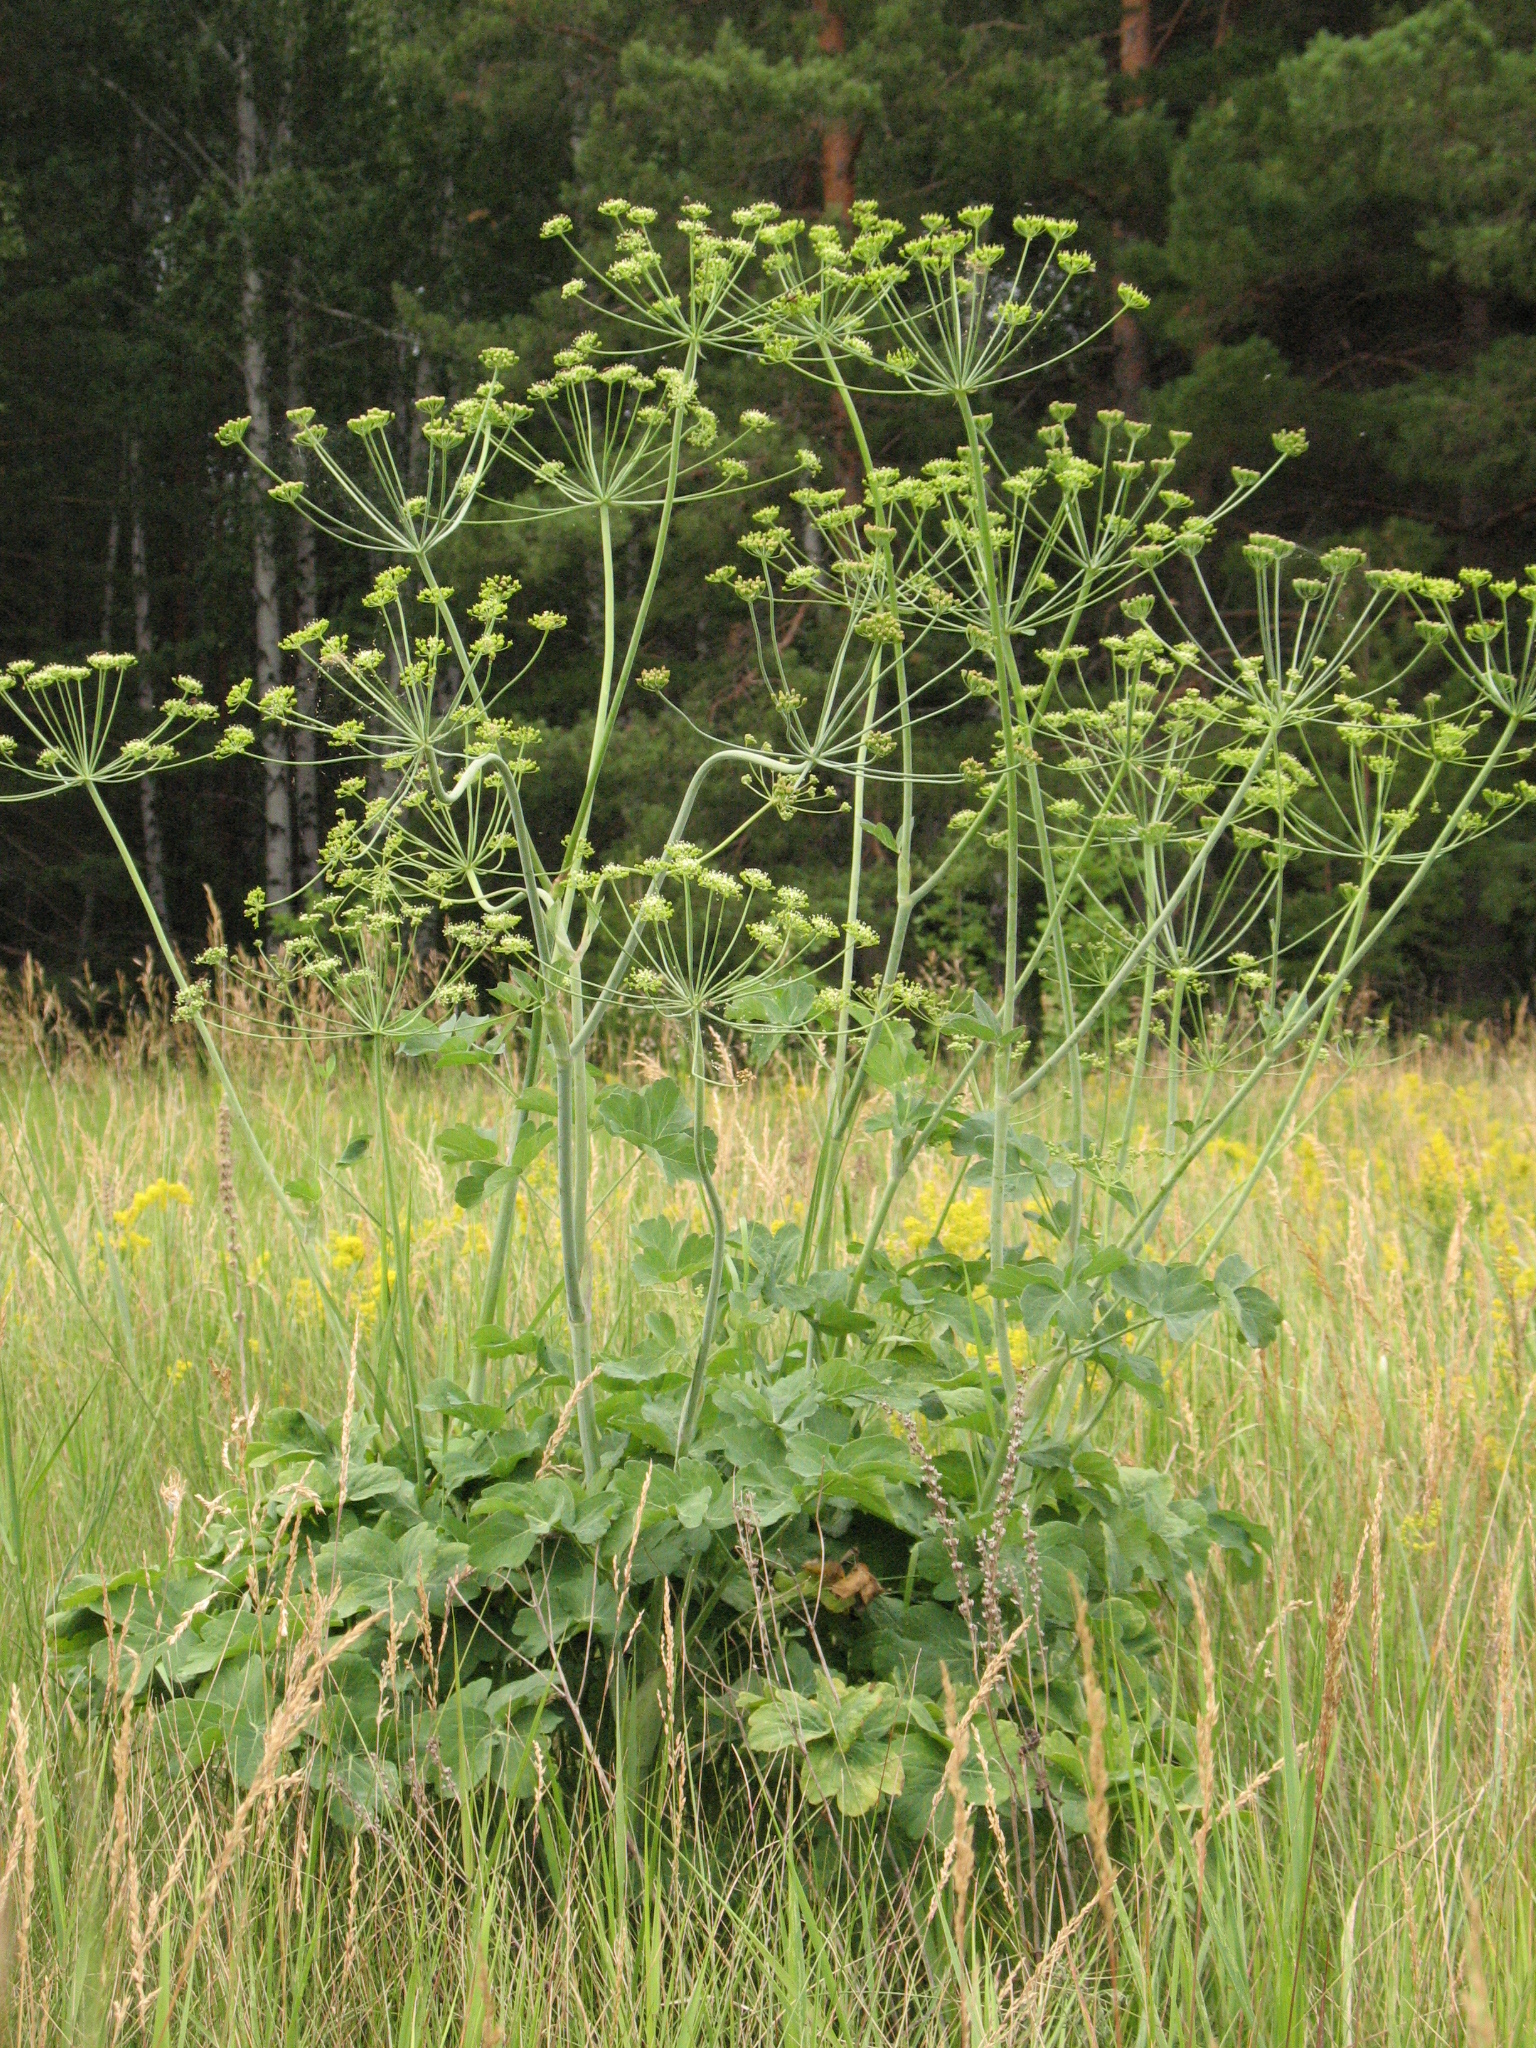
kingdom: Plantae
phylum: Tracheophyta
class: Magnoliopsida
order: Apiales
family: Apiaceae
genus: Laser
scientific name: Laser trilobum
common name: Laser
